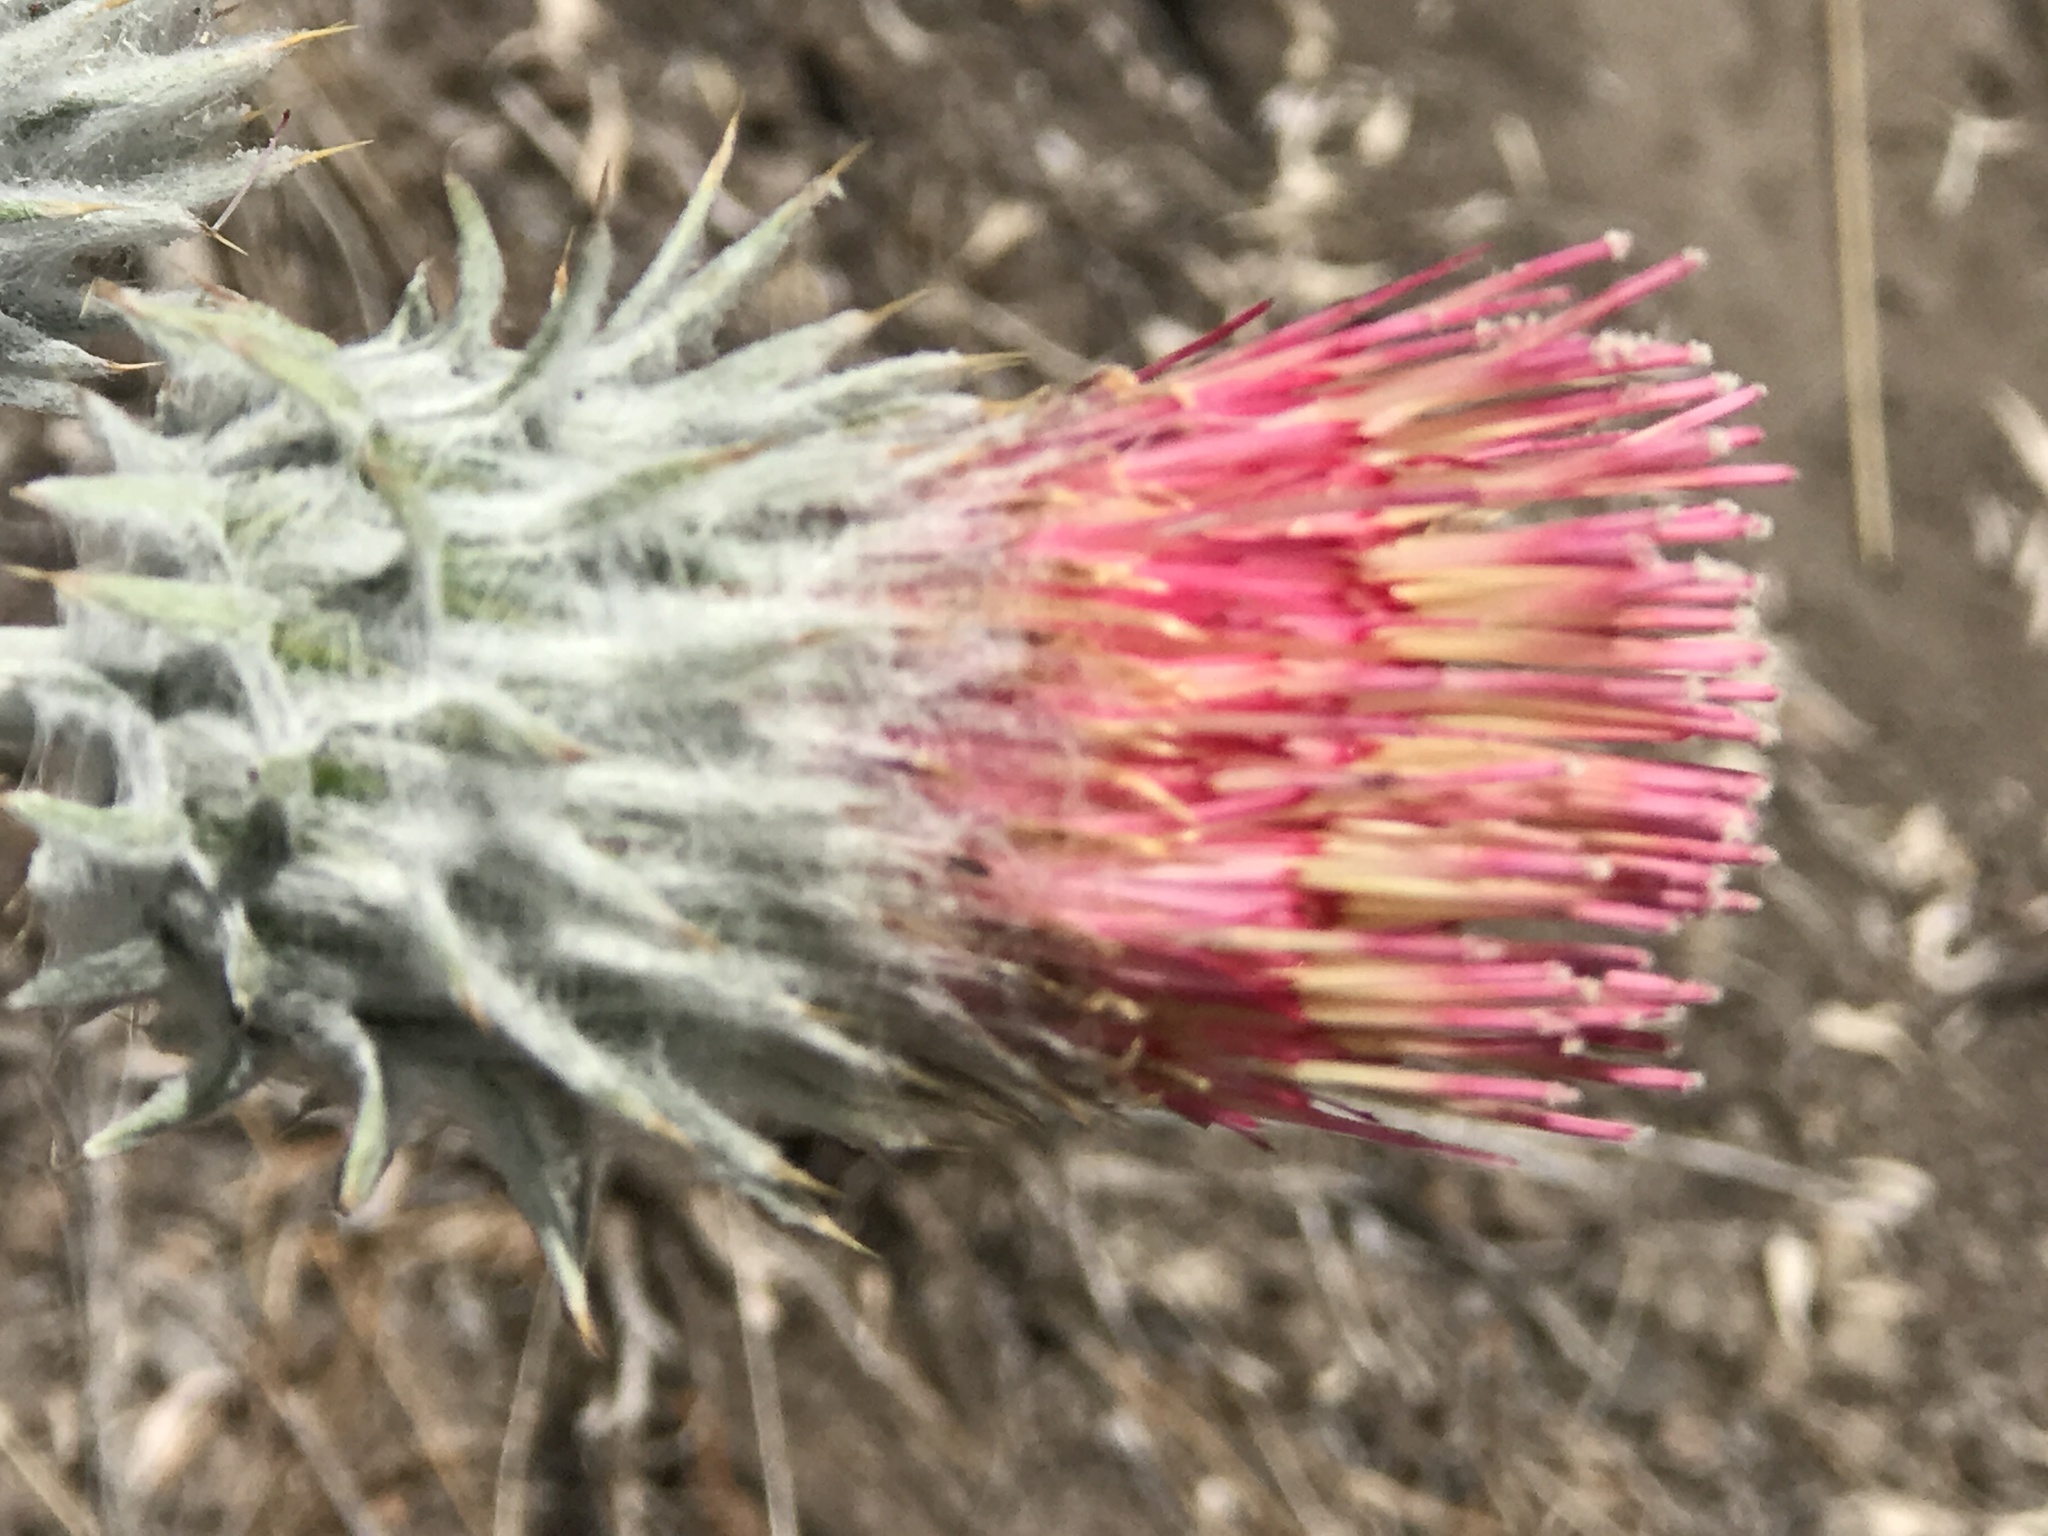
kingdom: Plantae
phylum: Tracheophyta
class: Magnoliopsida
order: Asterales
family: Asteraceae
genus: Cirsium
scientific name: Cirsium occidentale
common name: Western thistle
